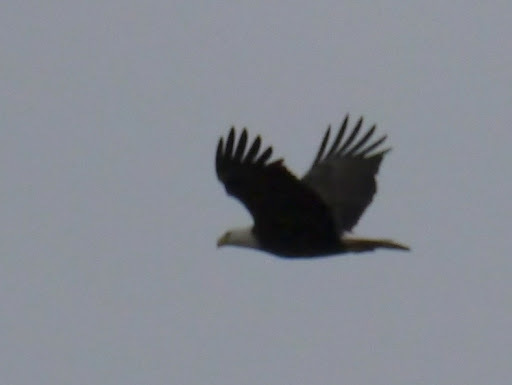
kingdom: Animalia
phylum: Chordata
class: Aves
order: Accipitriformes
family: Accipitridae
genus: Haliaeetus
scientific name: Haliaeetus leucocephalus
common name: Bald eagle
